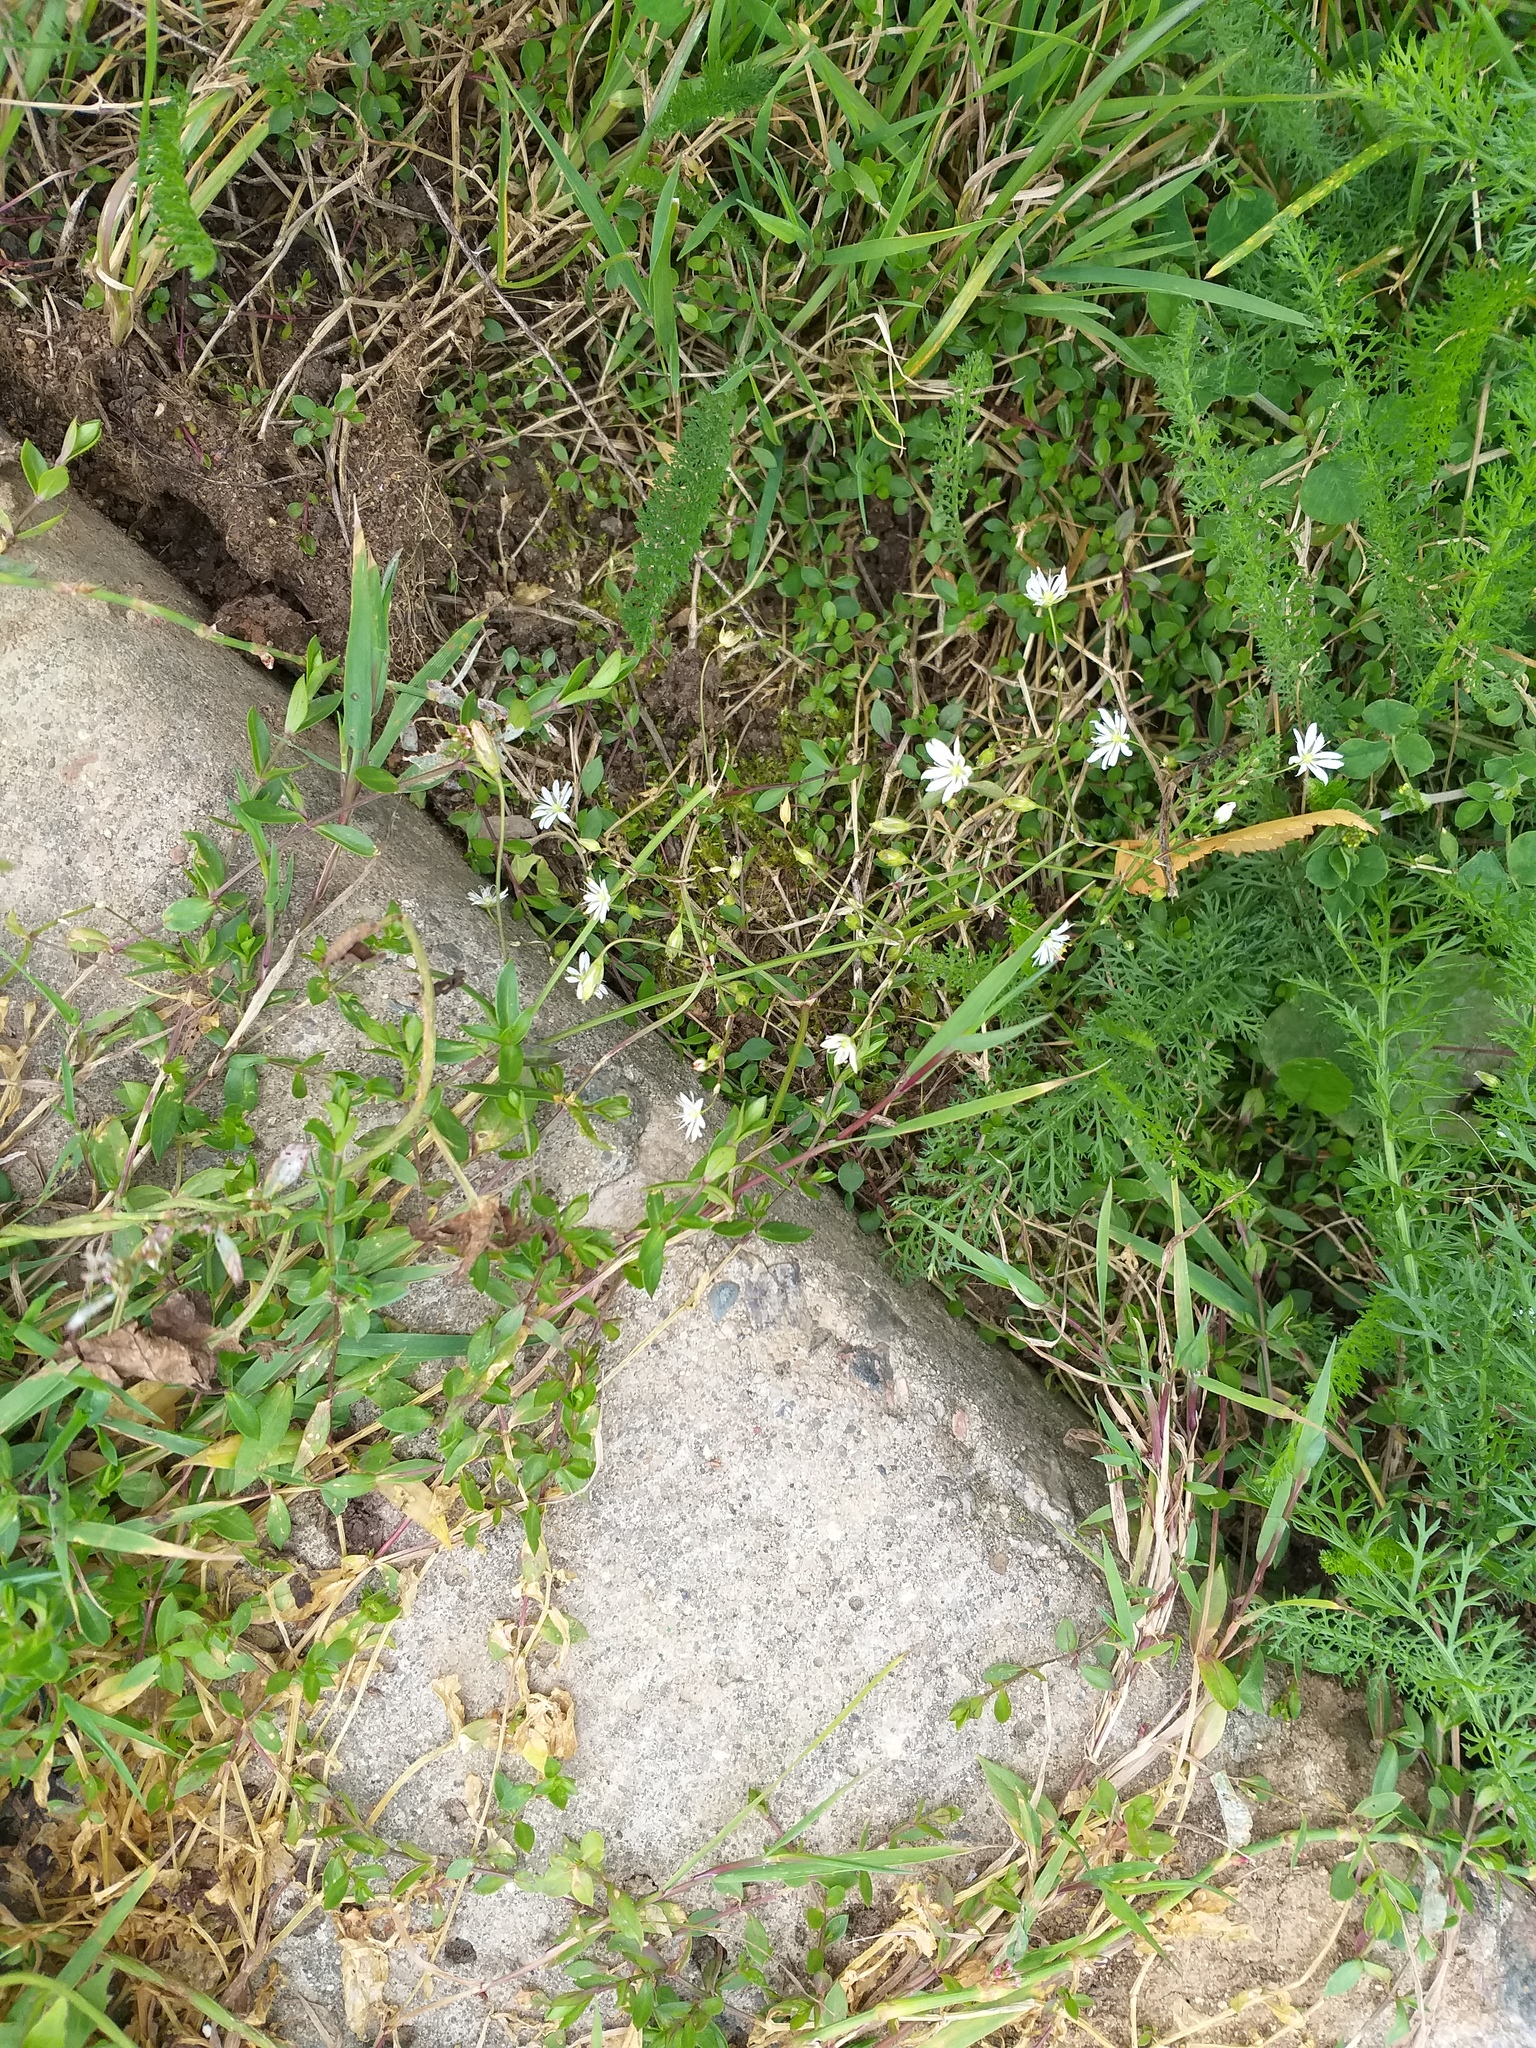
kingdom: Plantae
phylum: Tracheophyta
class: Magnoliopsida
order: Caryophyllales
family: Caryophyllaceae
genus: Stellaria
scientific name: Stellaria graminea
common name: Grass-like starwort
